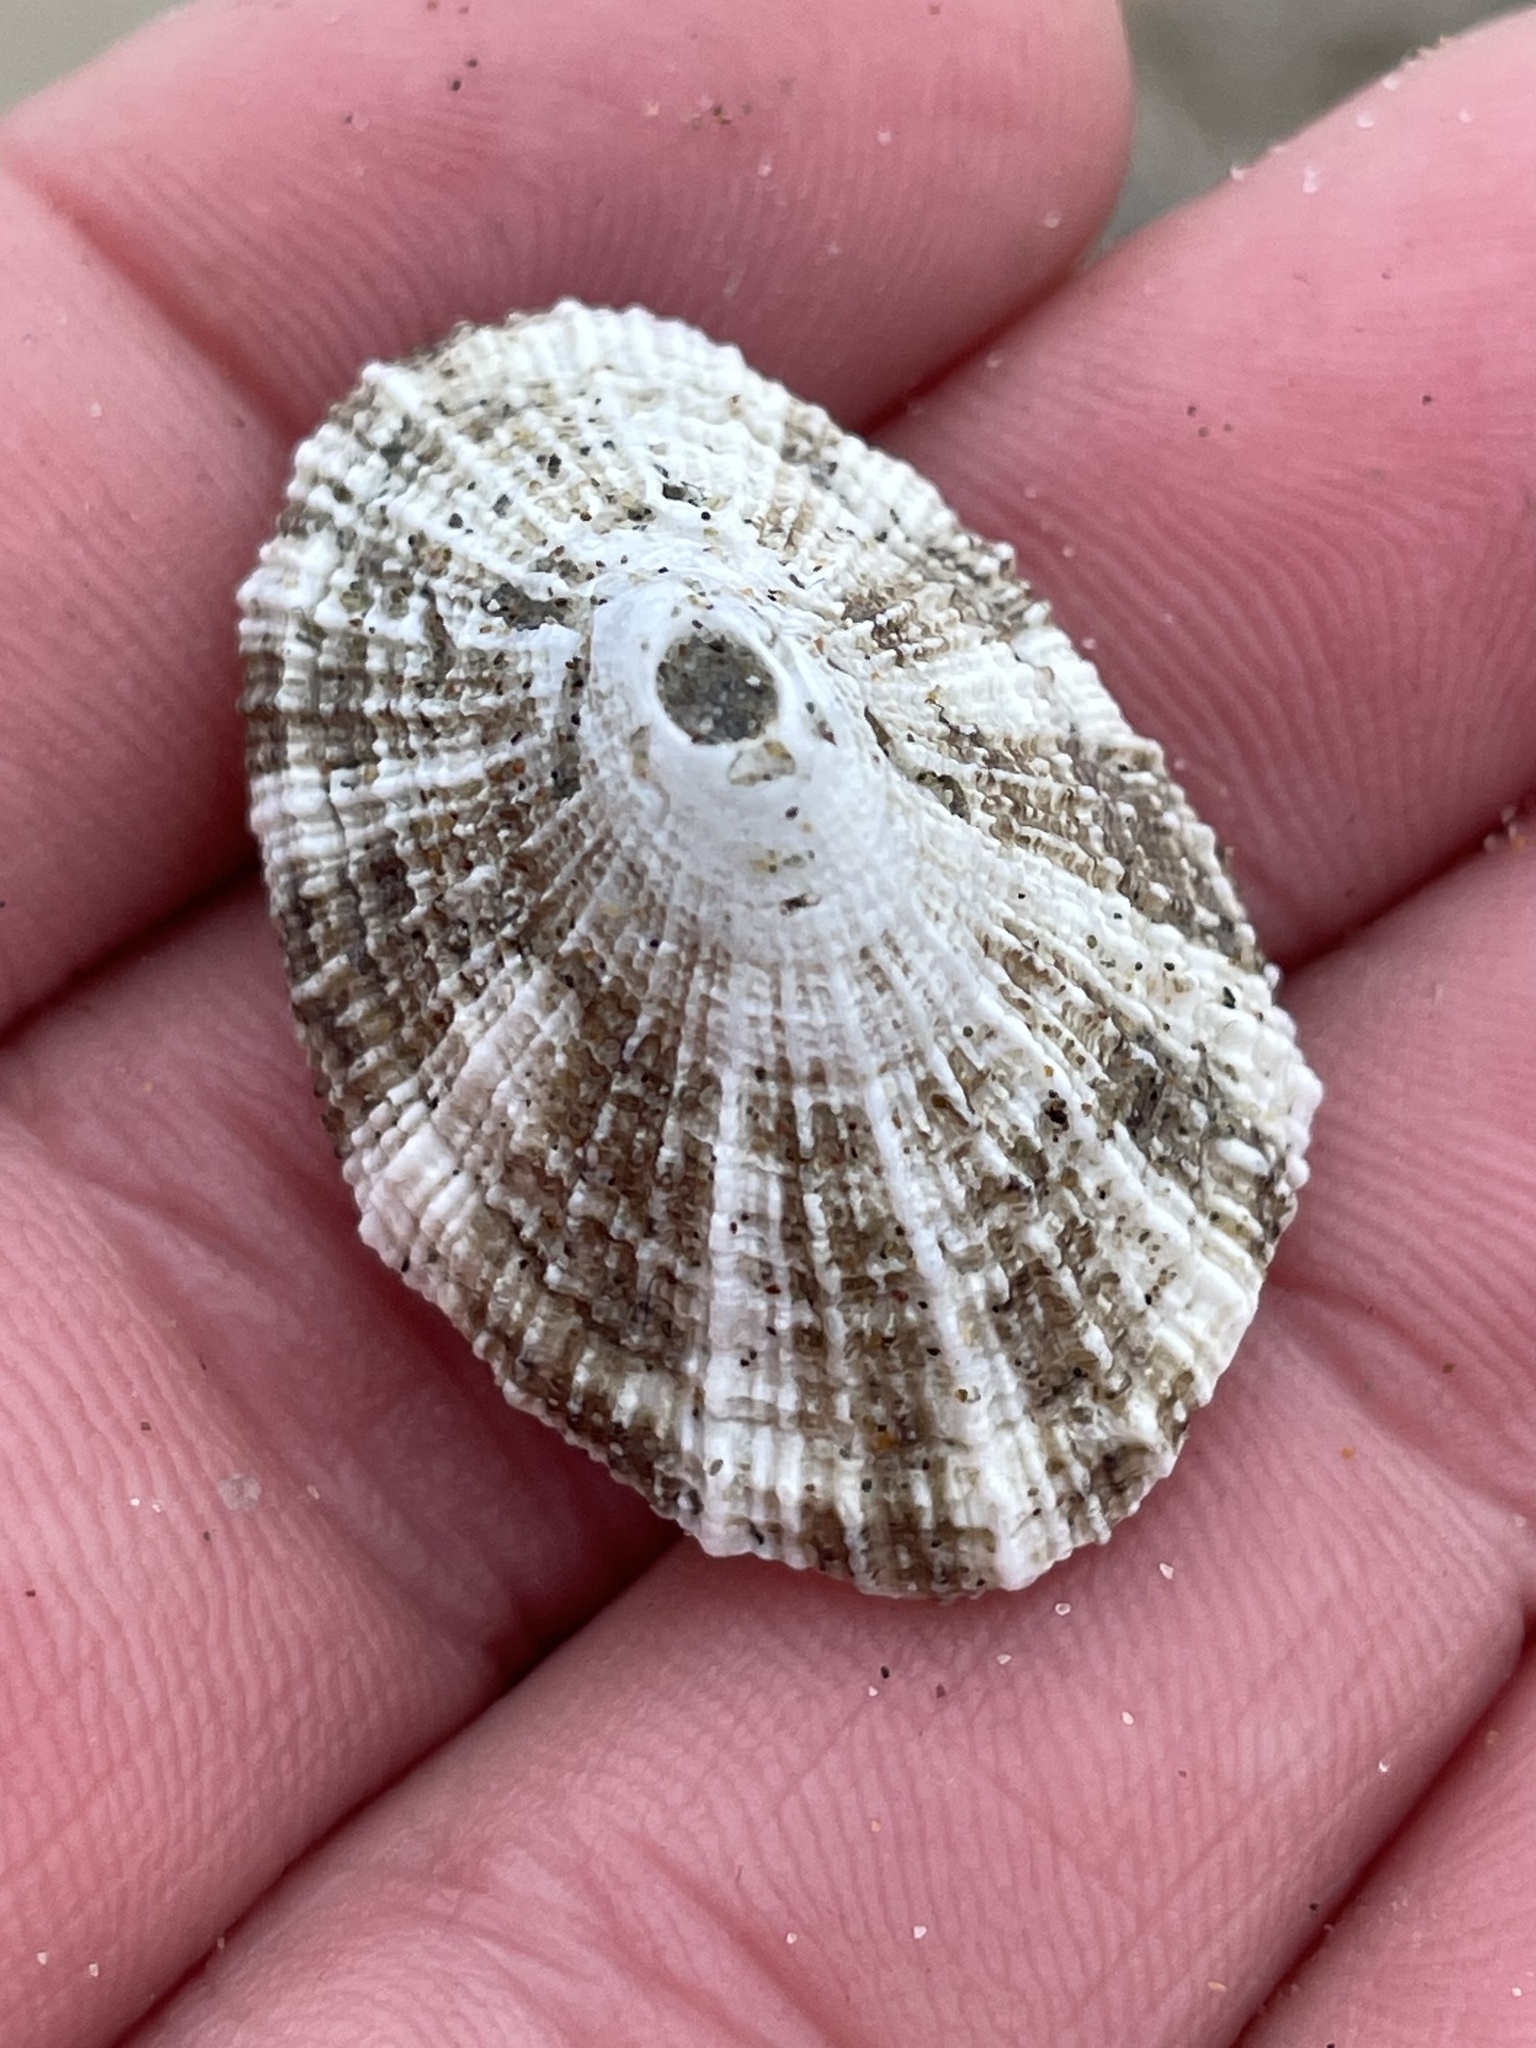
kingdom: Animalia
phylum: Mollusca
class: Gastropoda
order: Lepetellida
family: Fissurellidae
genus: Diodora
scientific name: Diodora aspera
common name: Rough keyhole limpet
